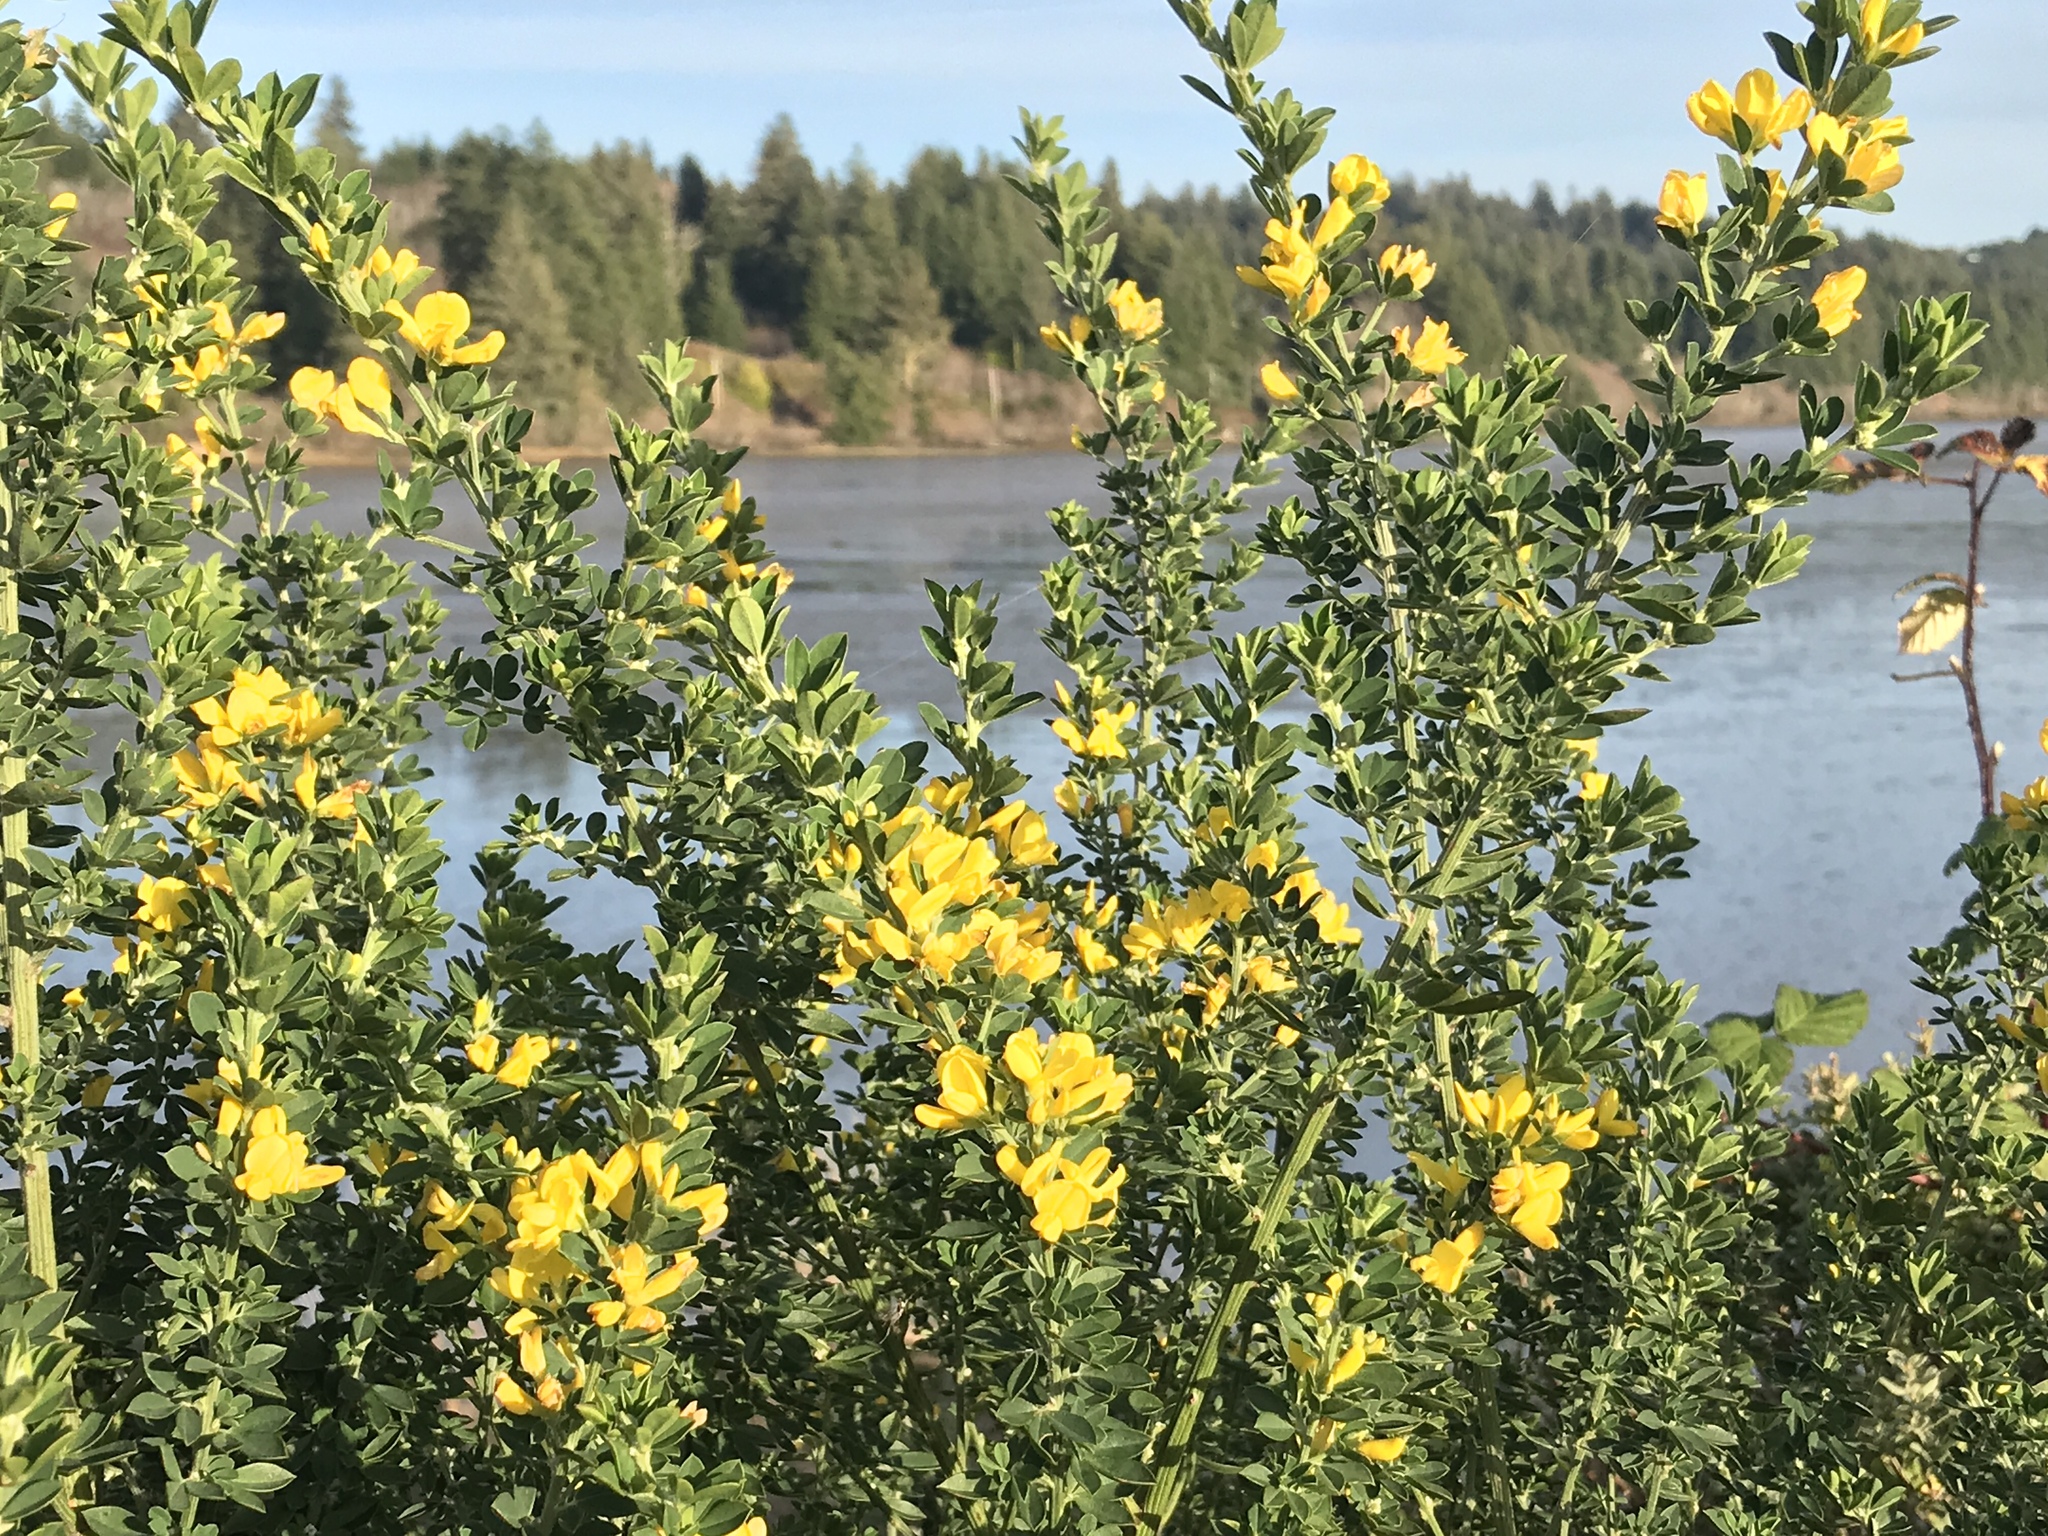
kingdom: Plantae
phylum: Tracheophyta
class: Magnoliopsida
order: Fabales
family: Fabaceae
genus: Genista
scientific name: Genista monspessulana
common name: Montpellier broom
